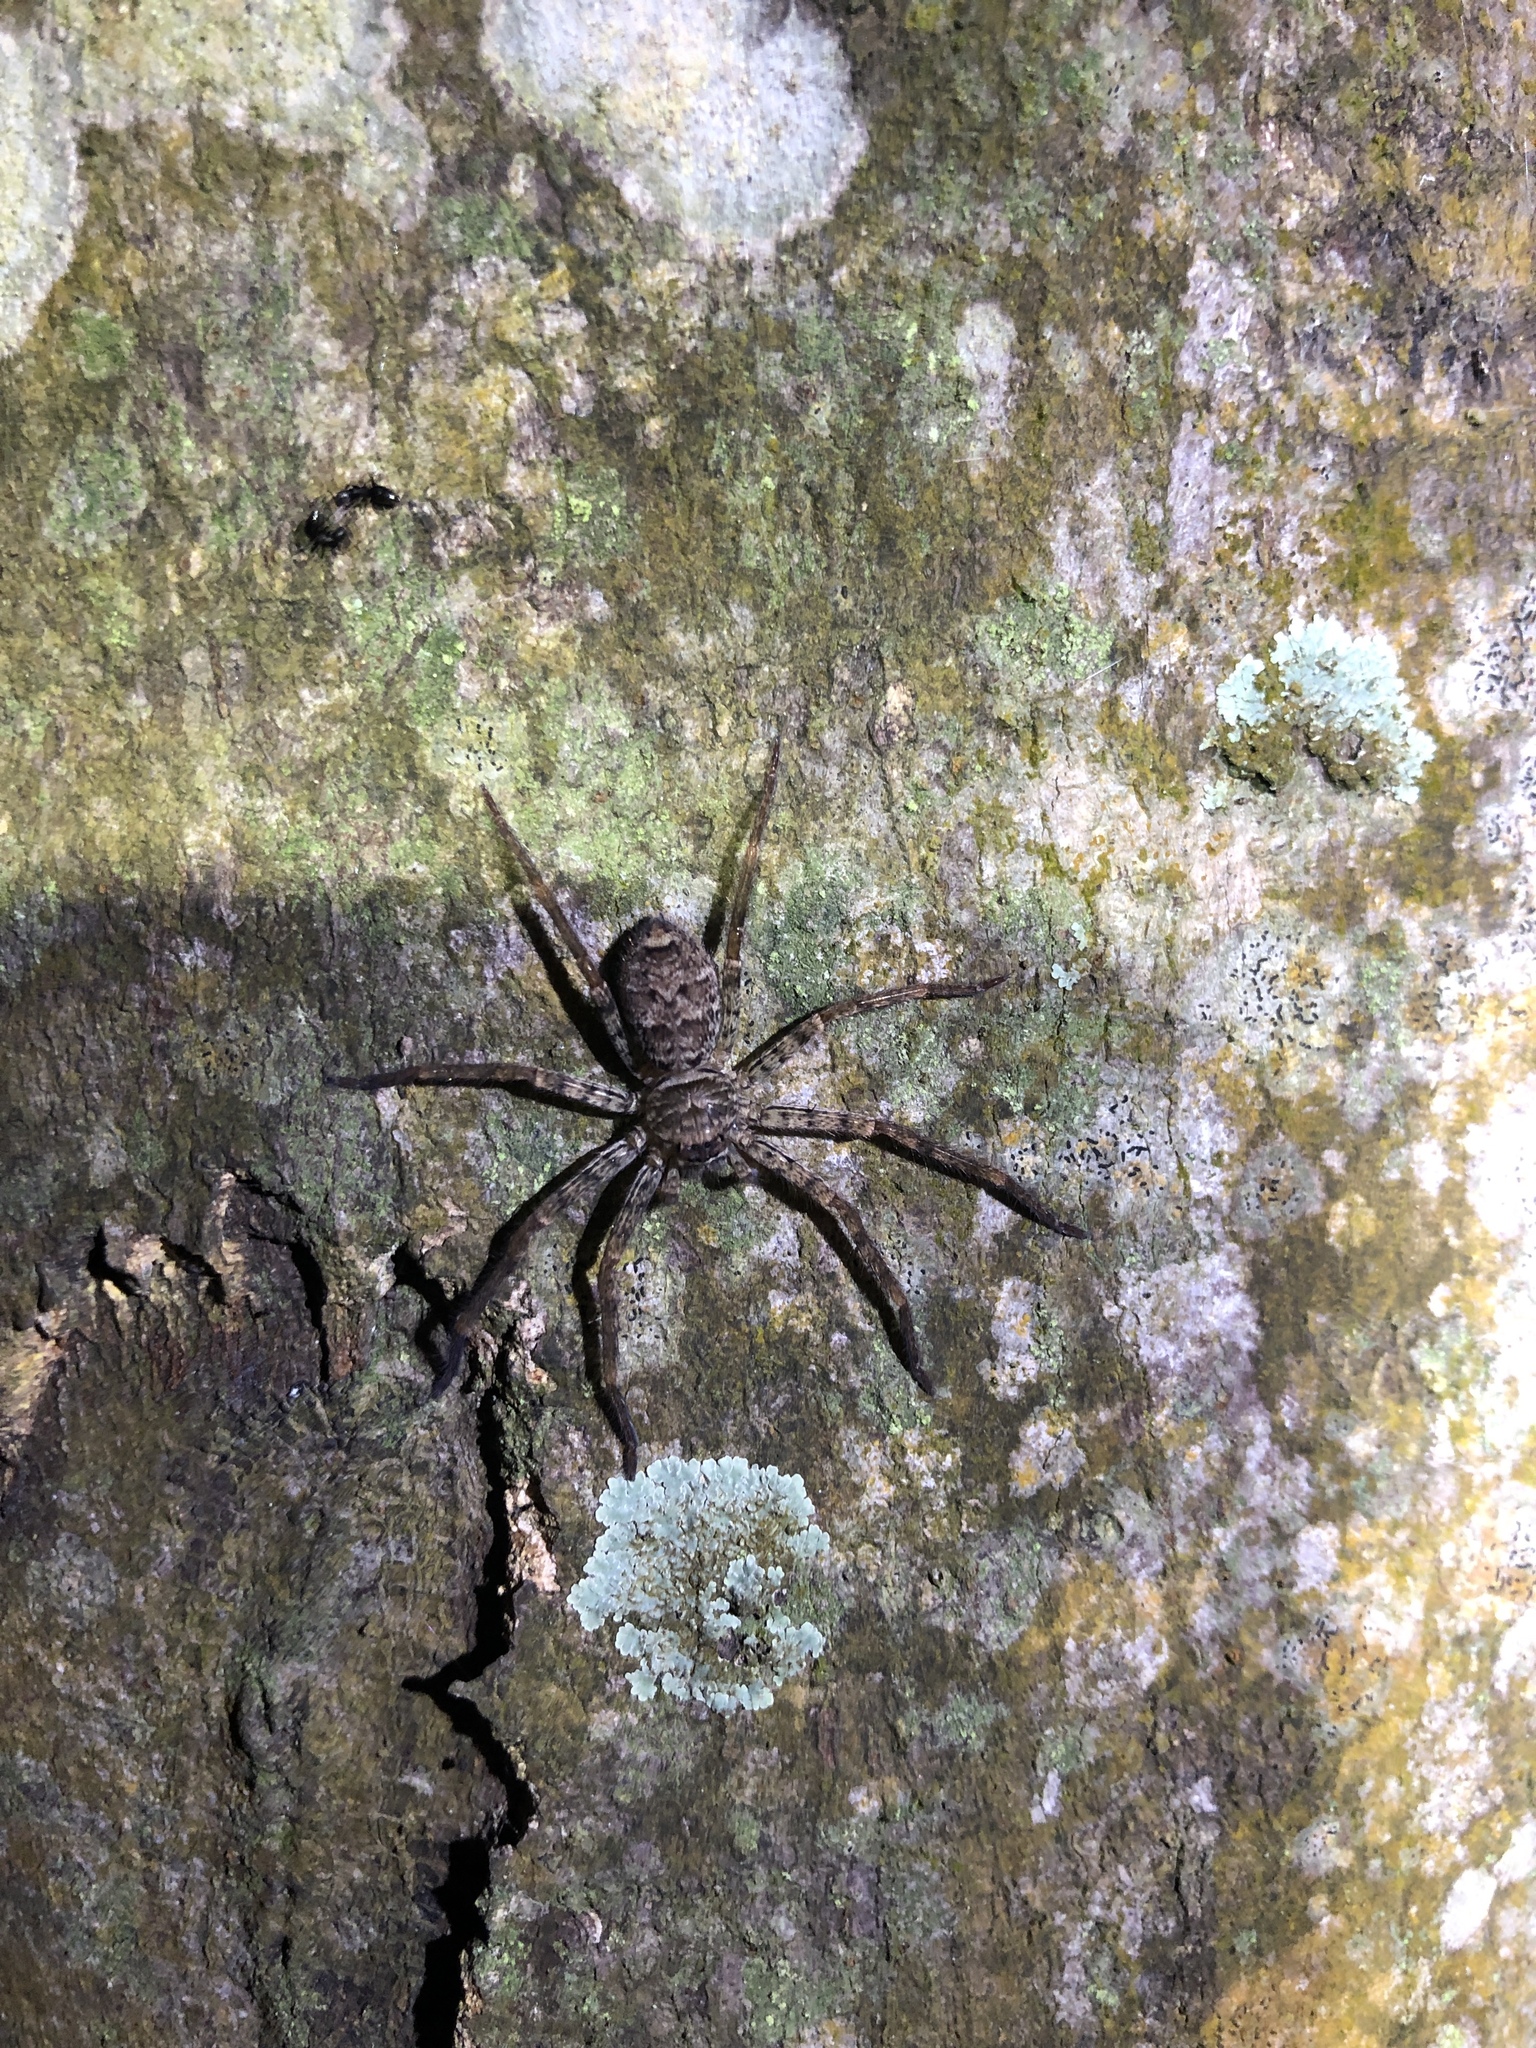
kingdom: Animalia
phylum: Arthropoda
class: Arachnida
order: Araneae
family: Sparassidae
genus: Heteropoda
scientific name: Heteropoda venatoria
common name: Huntsman spider
